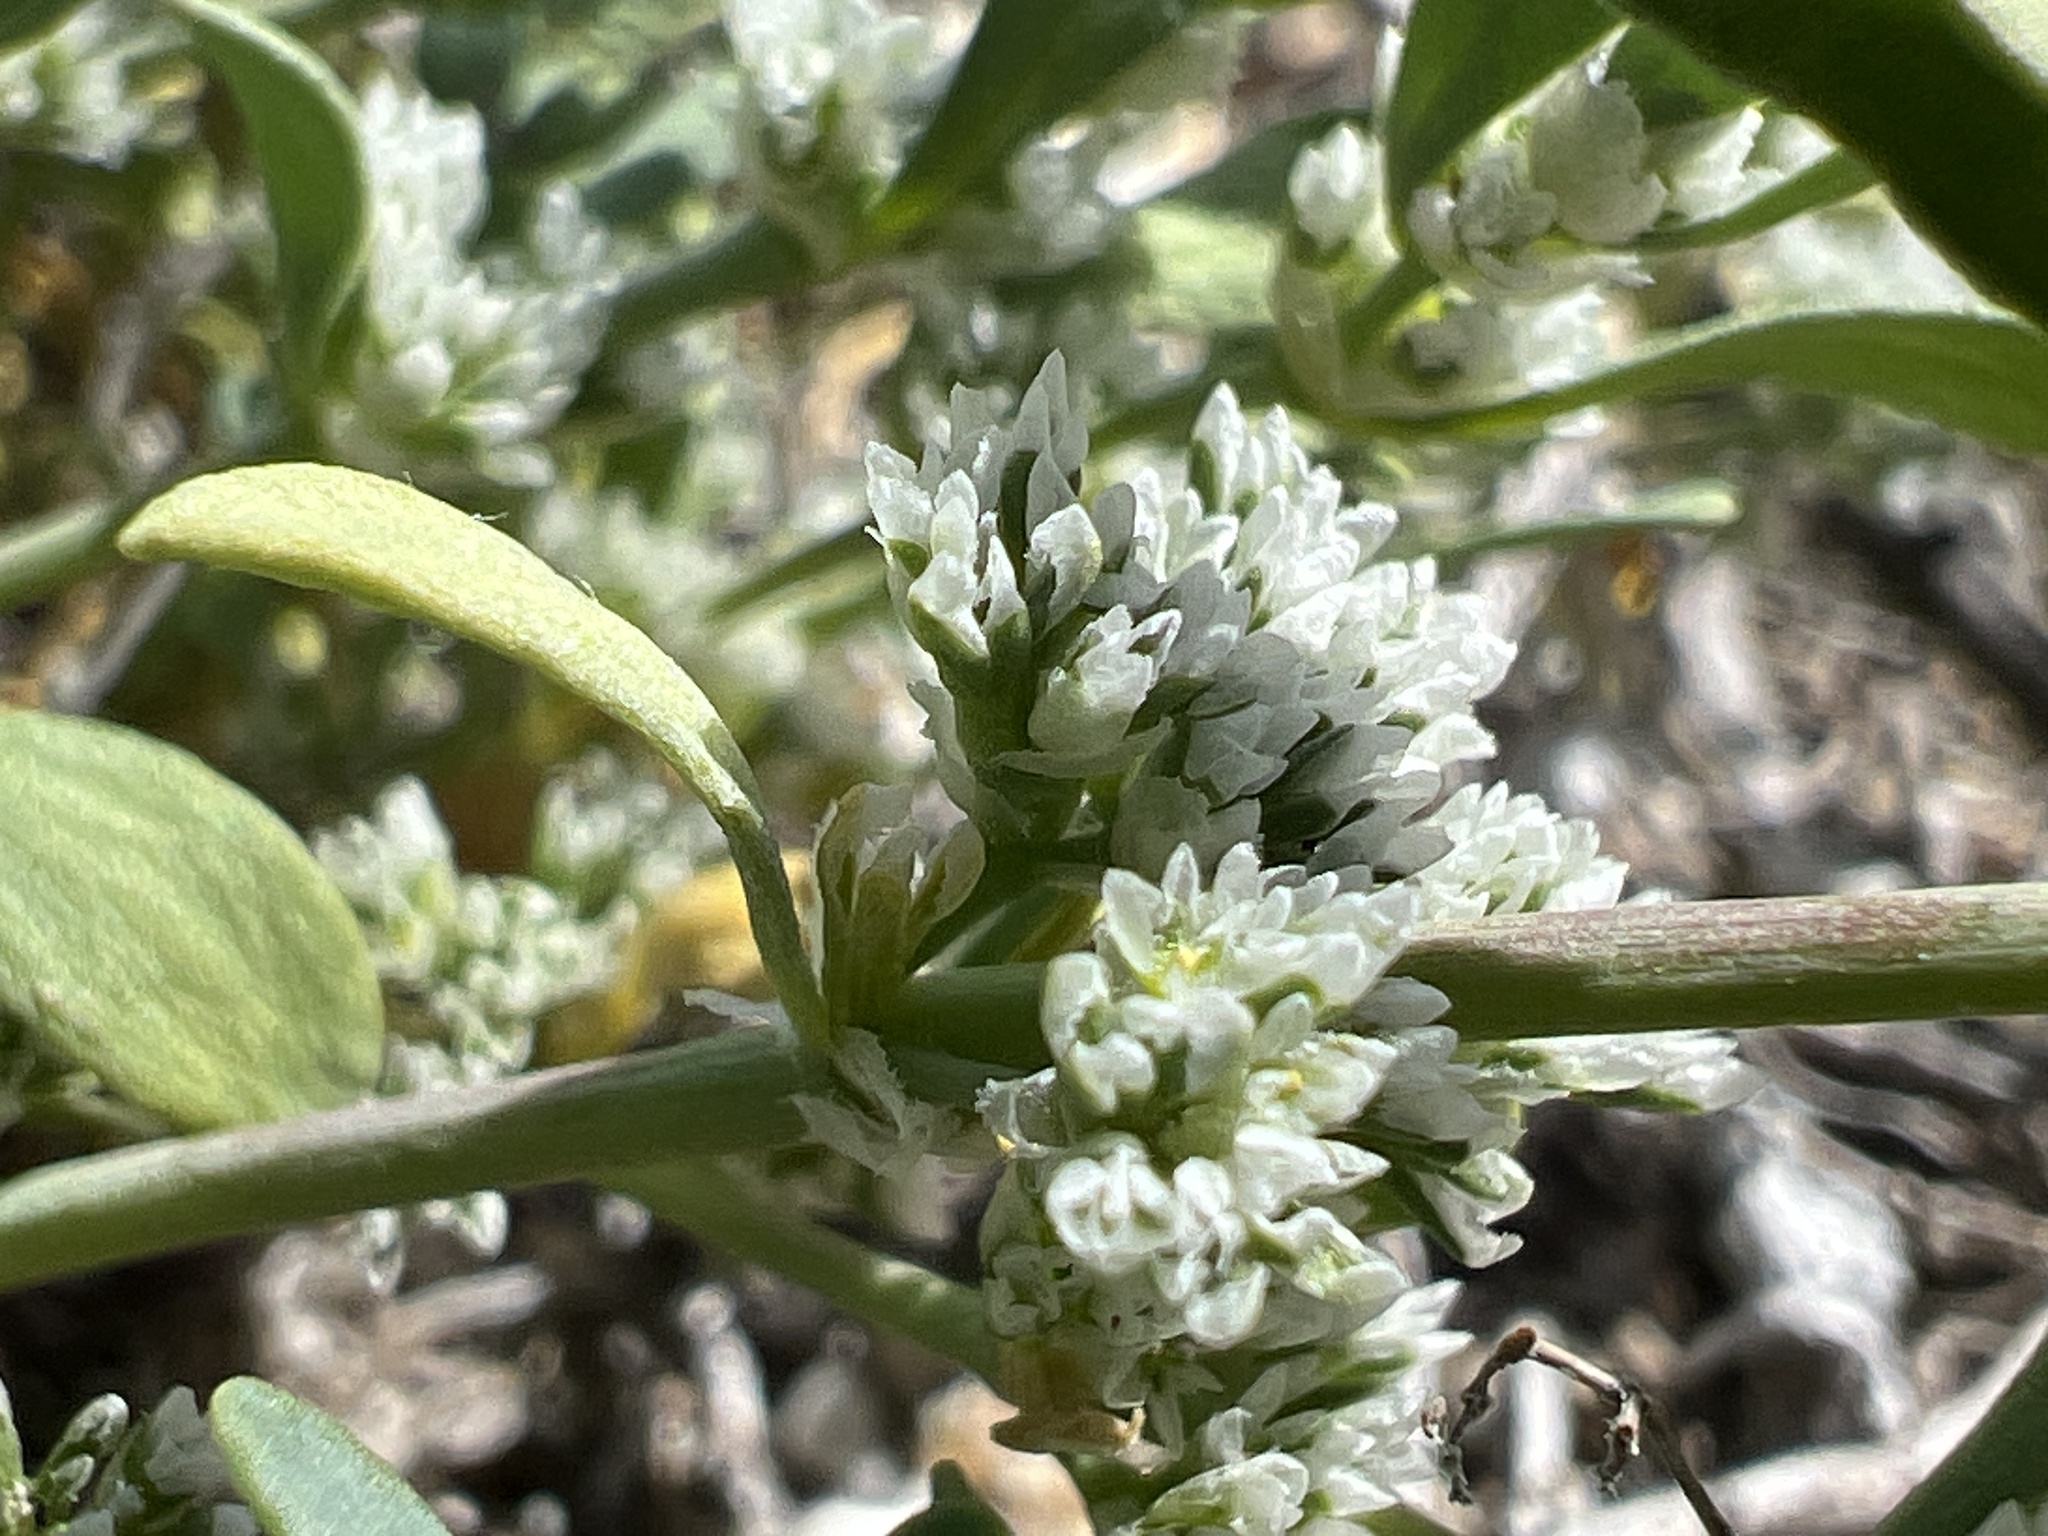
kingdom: Plantae
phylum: Tracheophyta
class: Magnoliopsida
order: Caryophyllales
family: Caryophyllaceae
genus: Achyronychia
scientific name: Achyronychia cooperi
